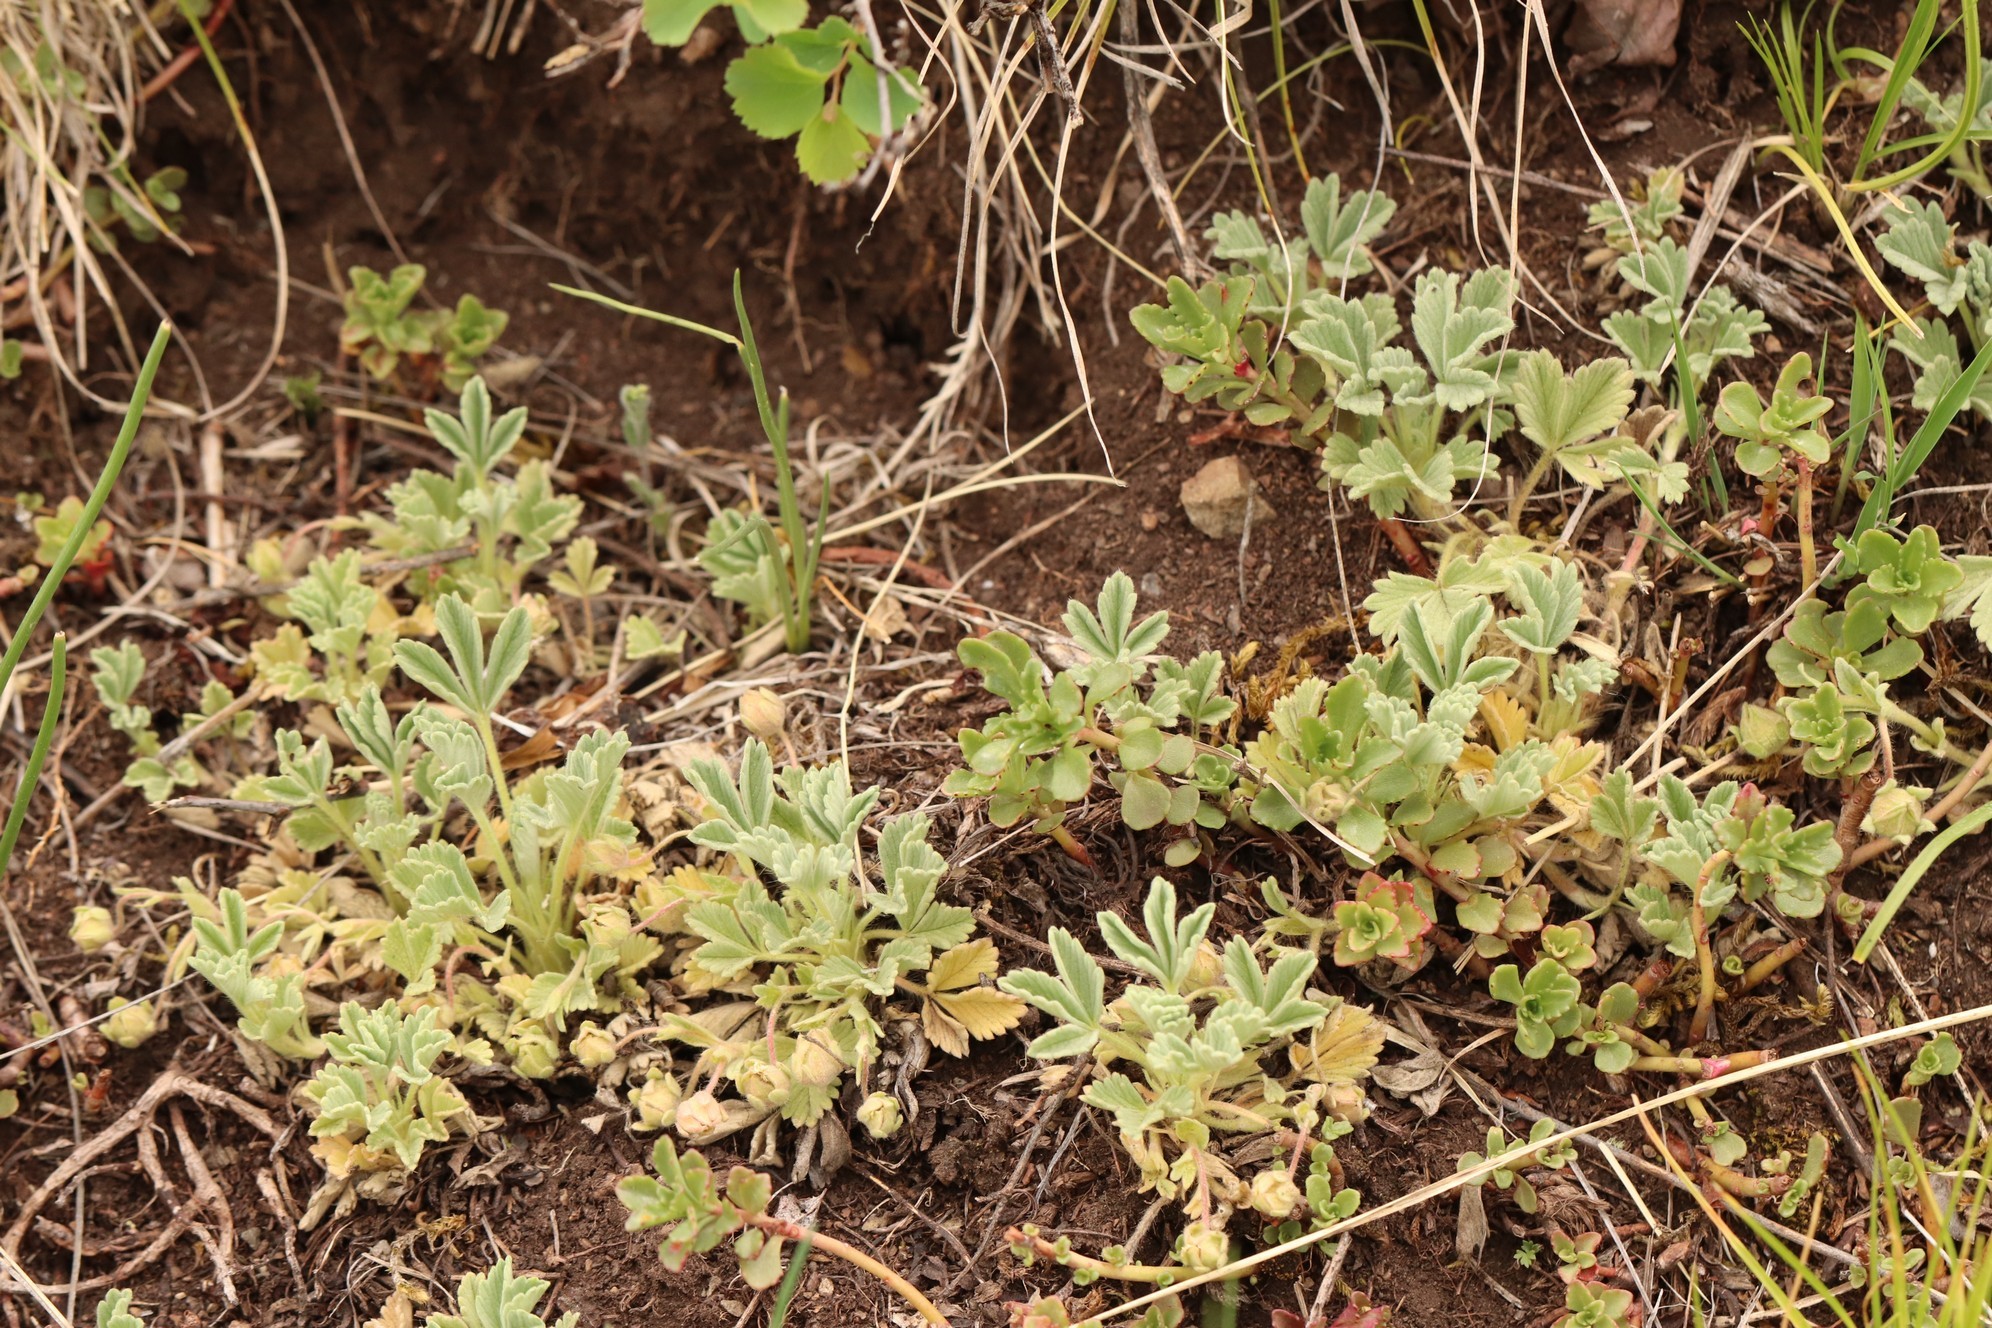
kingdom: Plantae
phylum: Tracheophyta
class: Magnoliopsida
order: Rosales
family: Rosaceae
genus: Potentilla
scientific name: Potentilla acaulis
